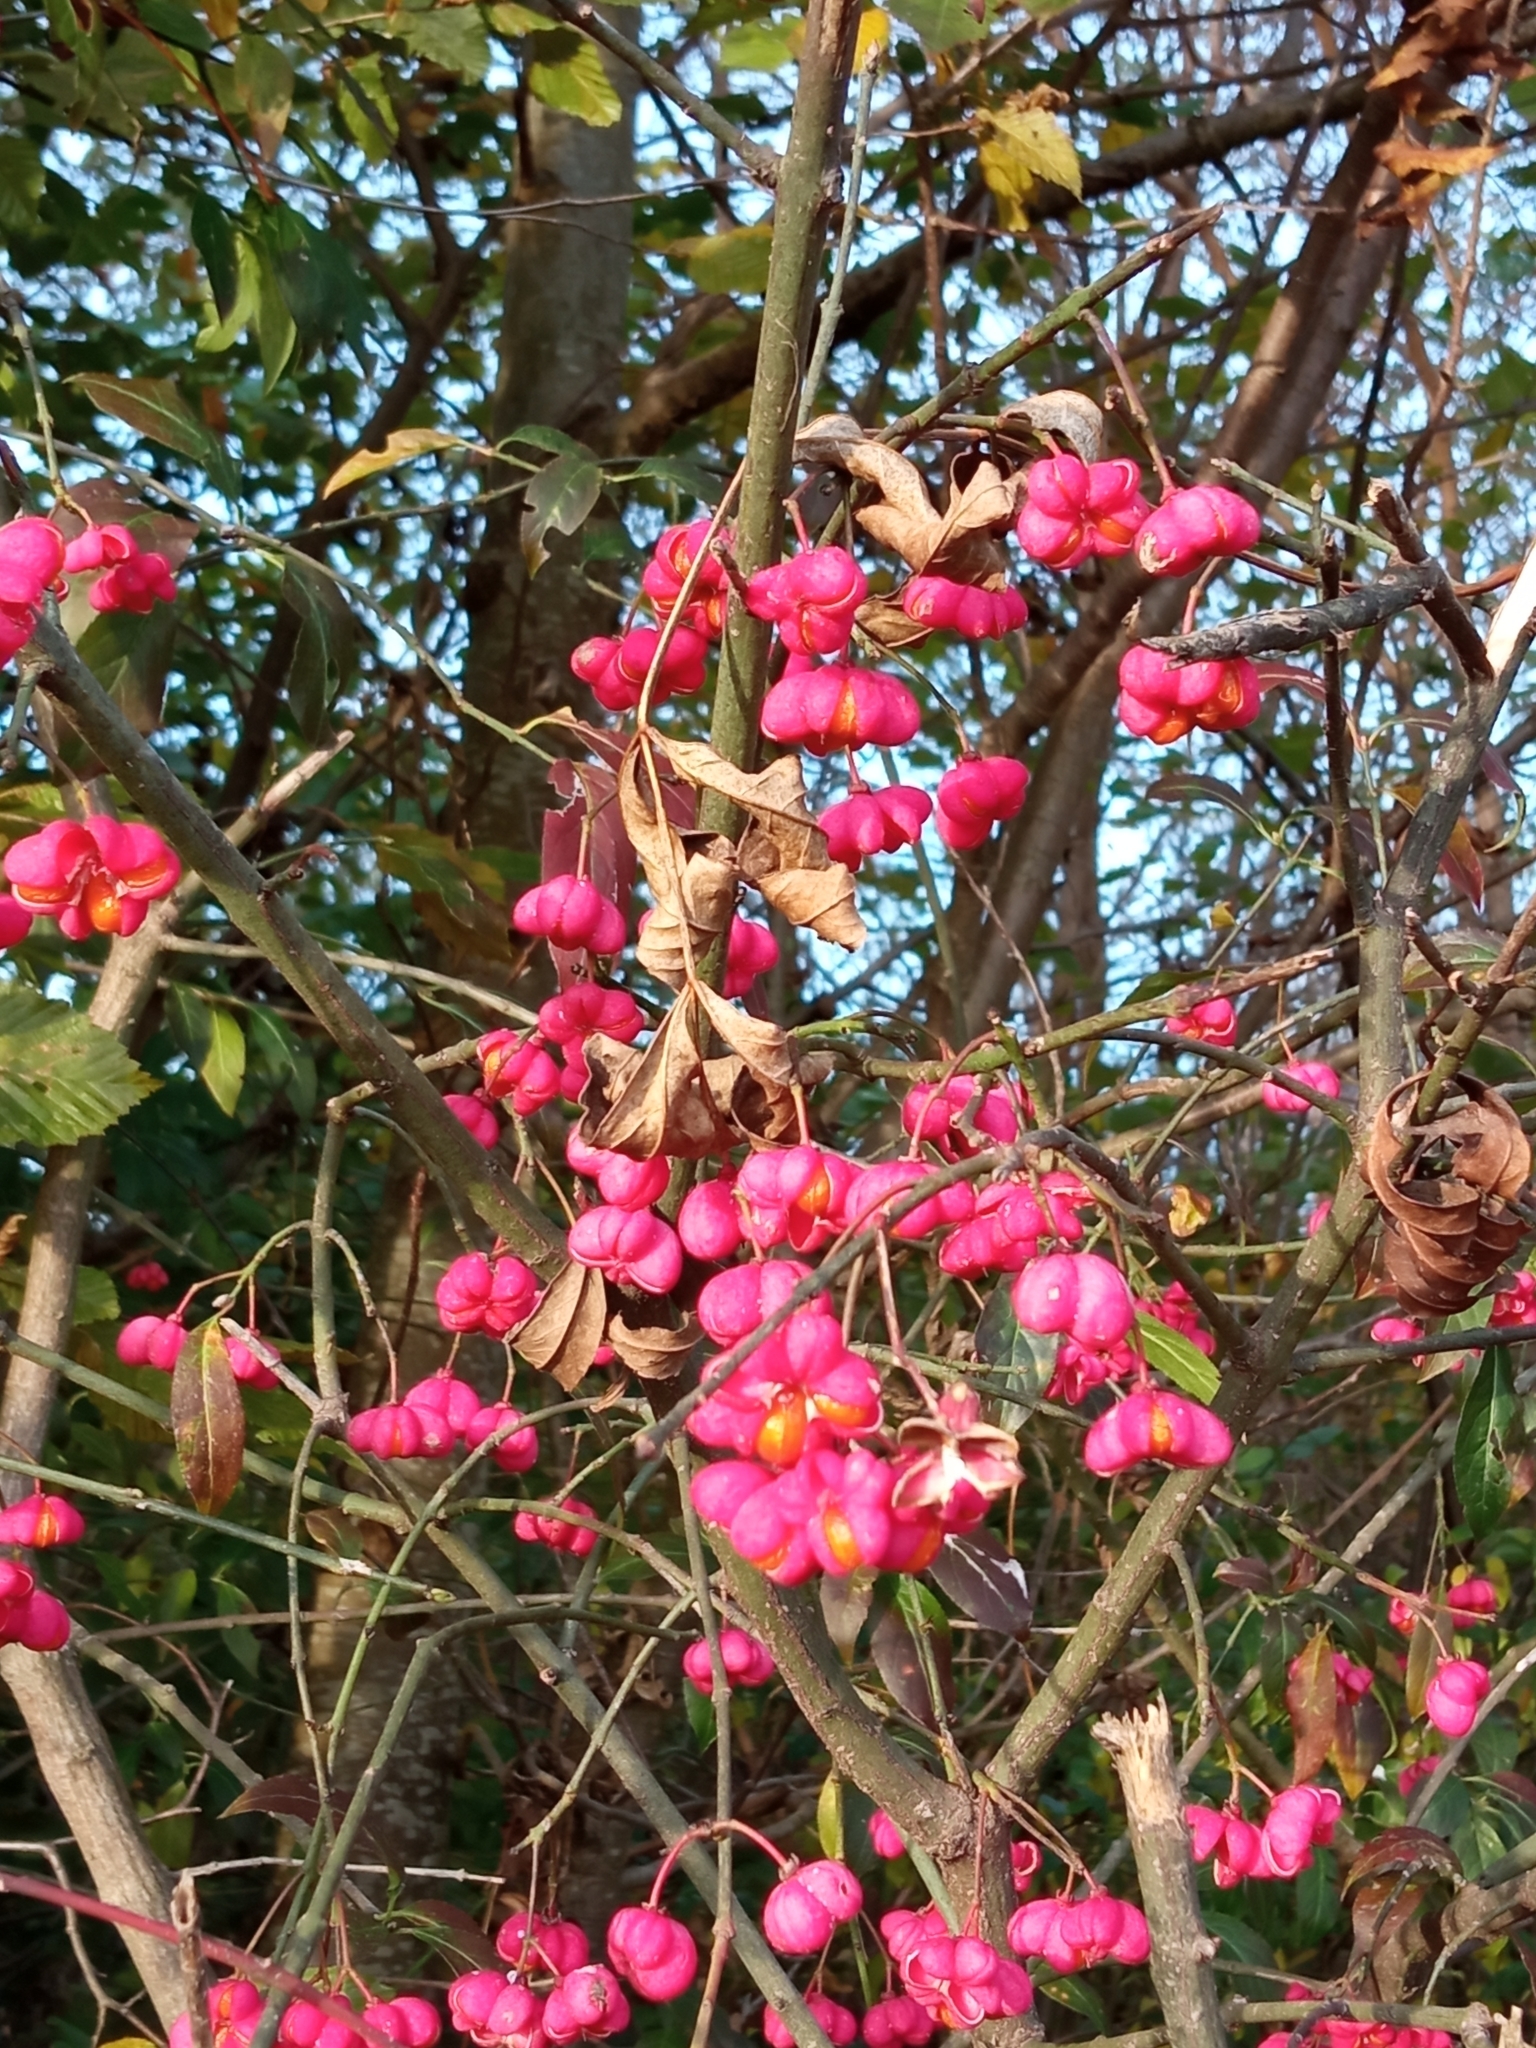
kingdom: Plantae
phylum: Tracheophyta
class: Magnoliopsida
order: Celastrales
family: Celastraceae
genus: Euonymus
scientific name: Euonymus europaeus
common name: Spindle
